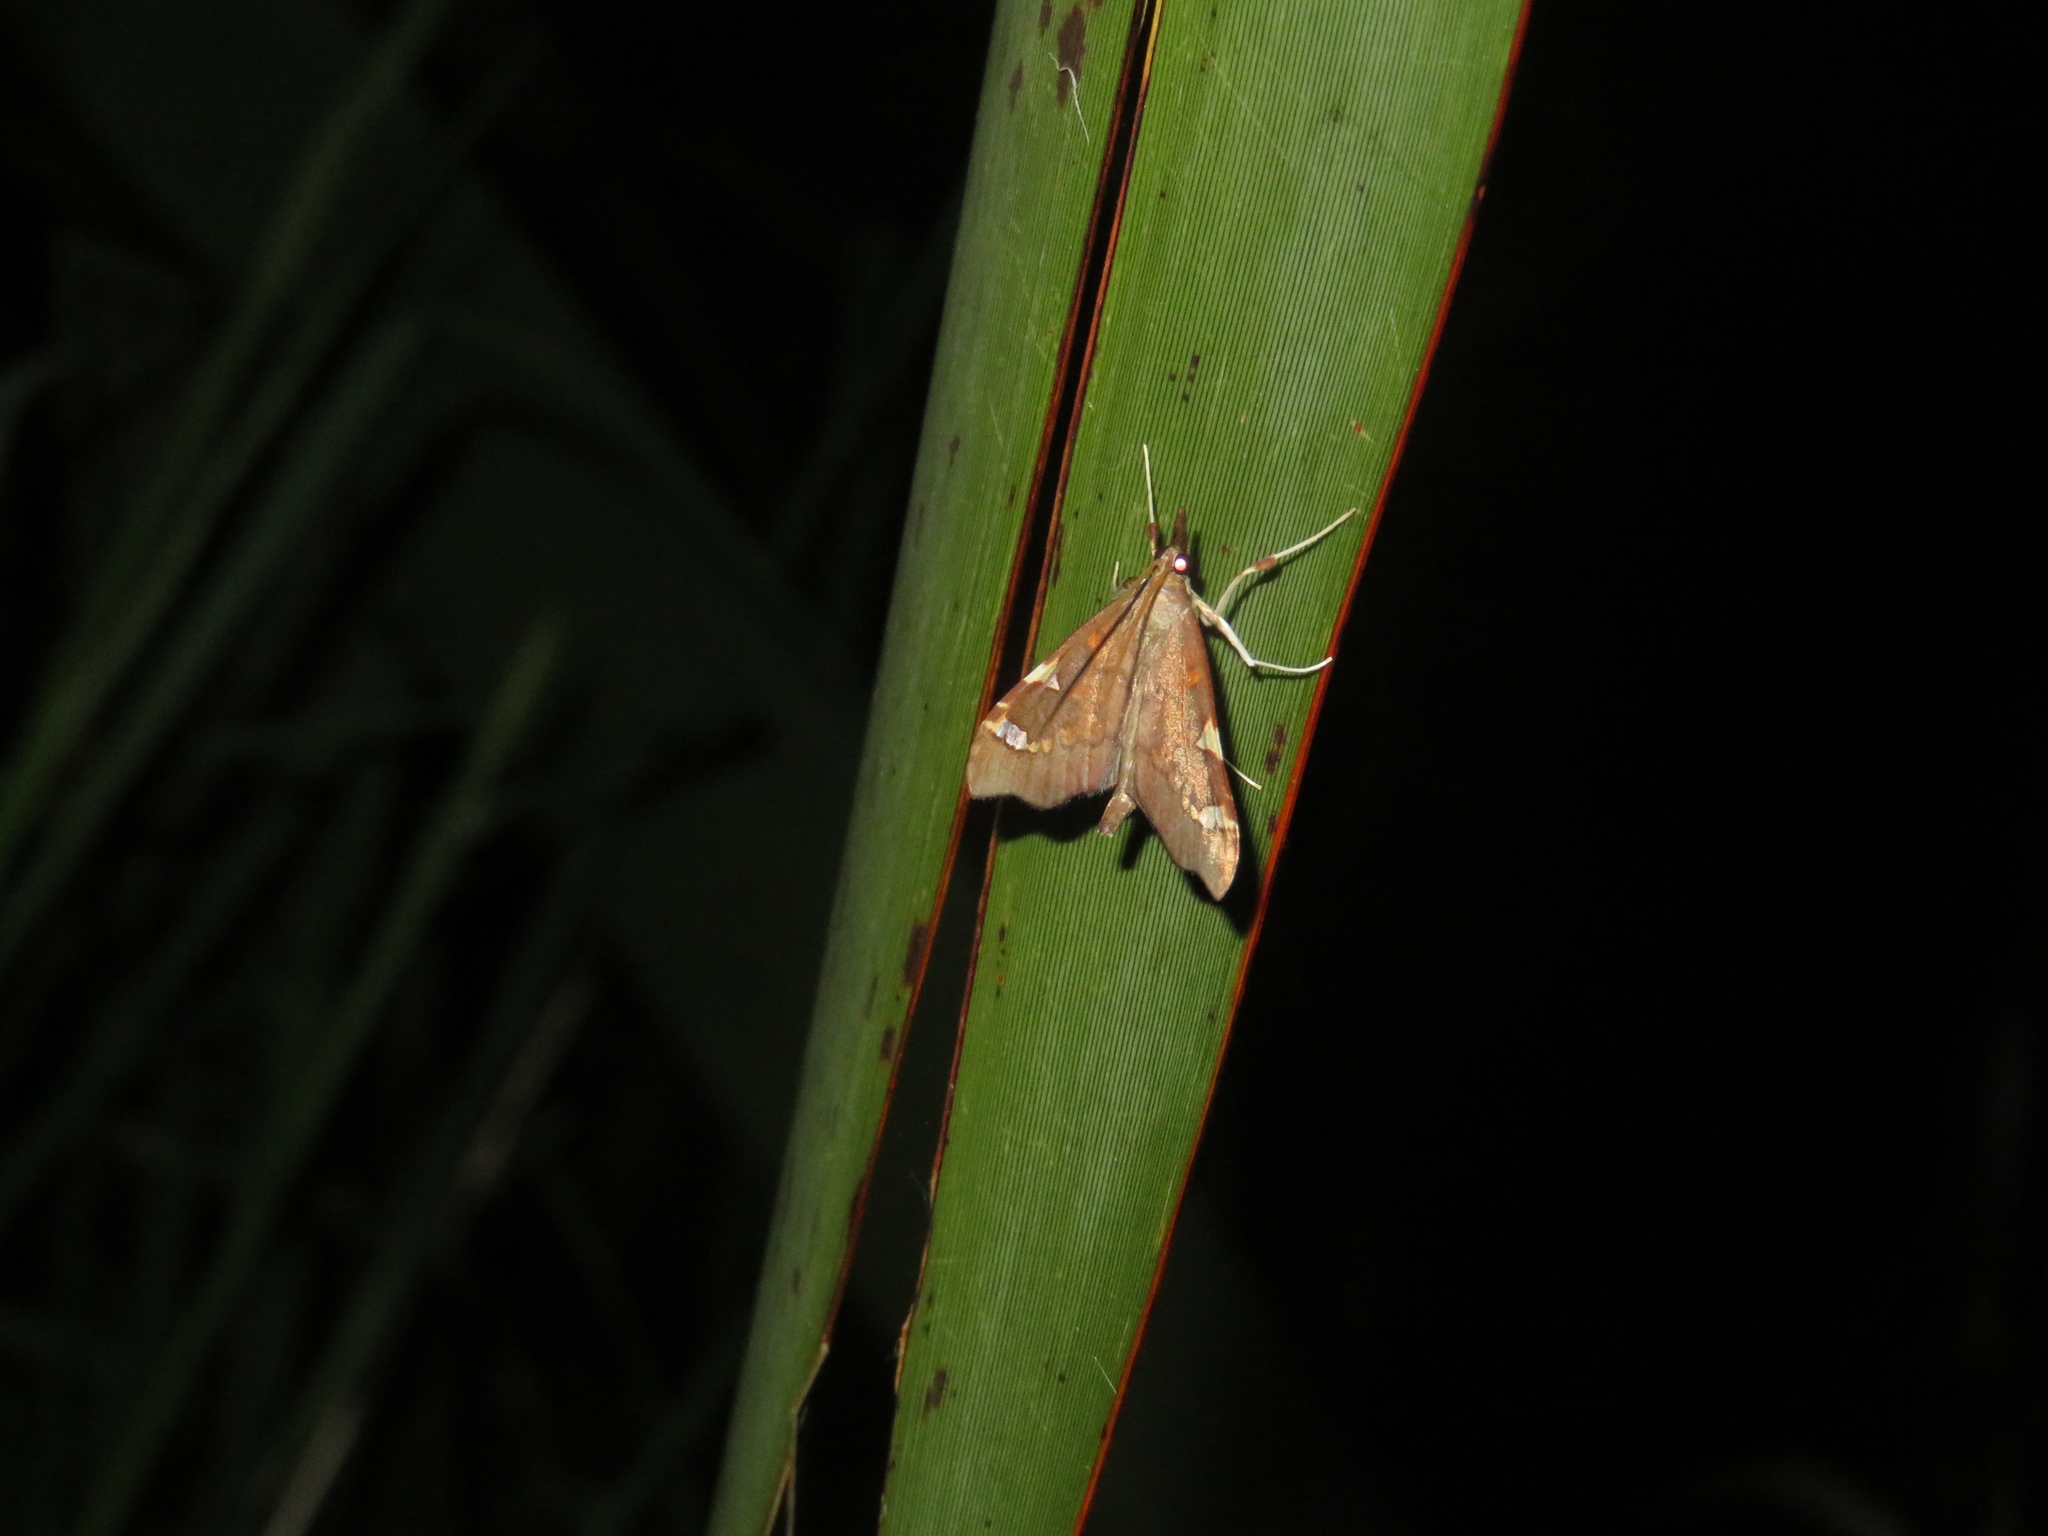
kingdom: Animalia
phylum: Arthropoda
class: Insecta
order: Lepidoptera
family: Crambidae
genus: Deana
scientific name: Deana hybreasalis
